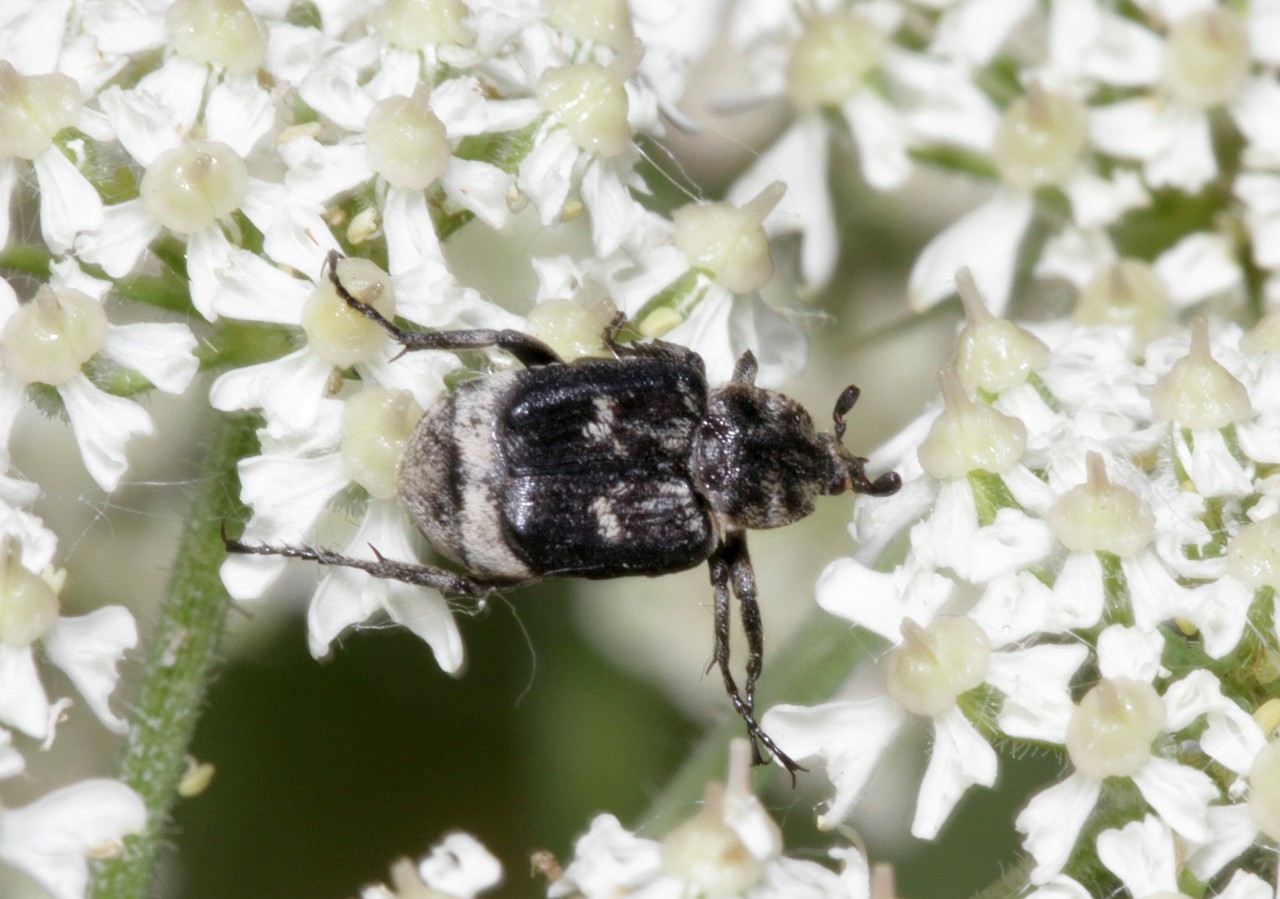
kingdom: Animalia
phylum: Arthropoda
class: Insecta
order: Coleoptera
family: Scarabaeidae
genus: Valgus
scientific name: Valgus hemipterus
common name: Bug flower chafer
